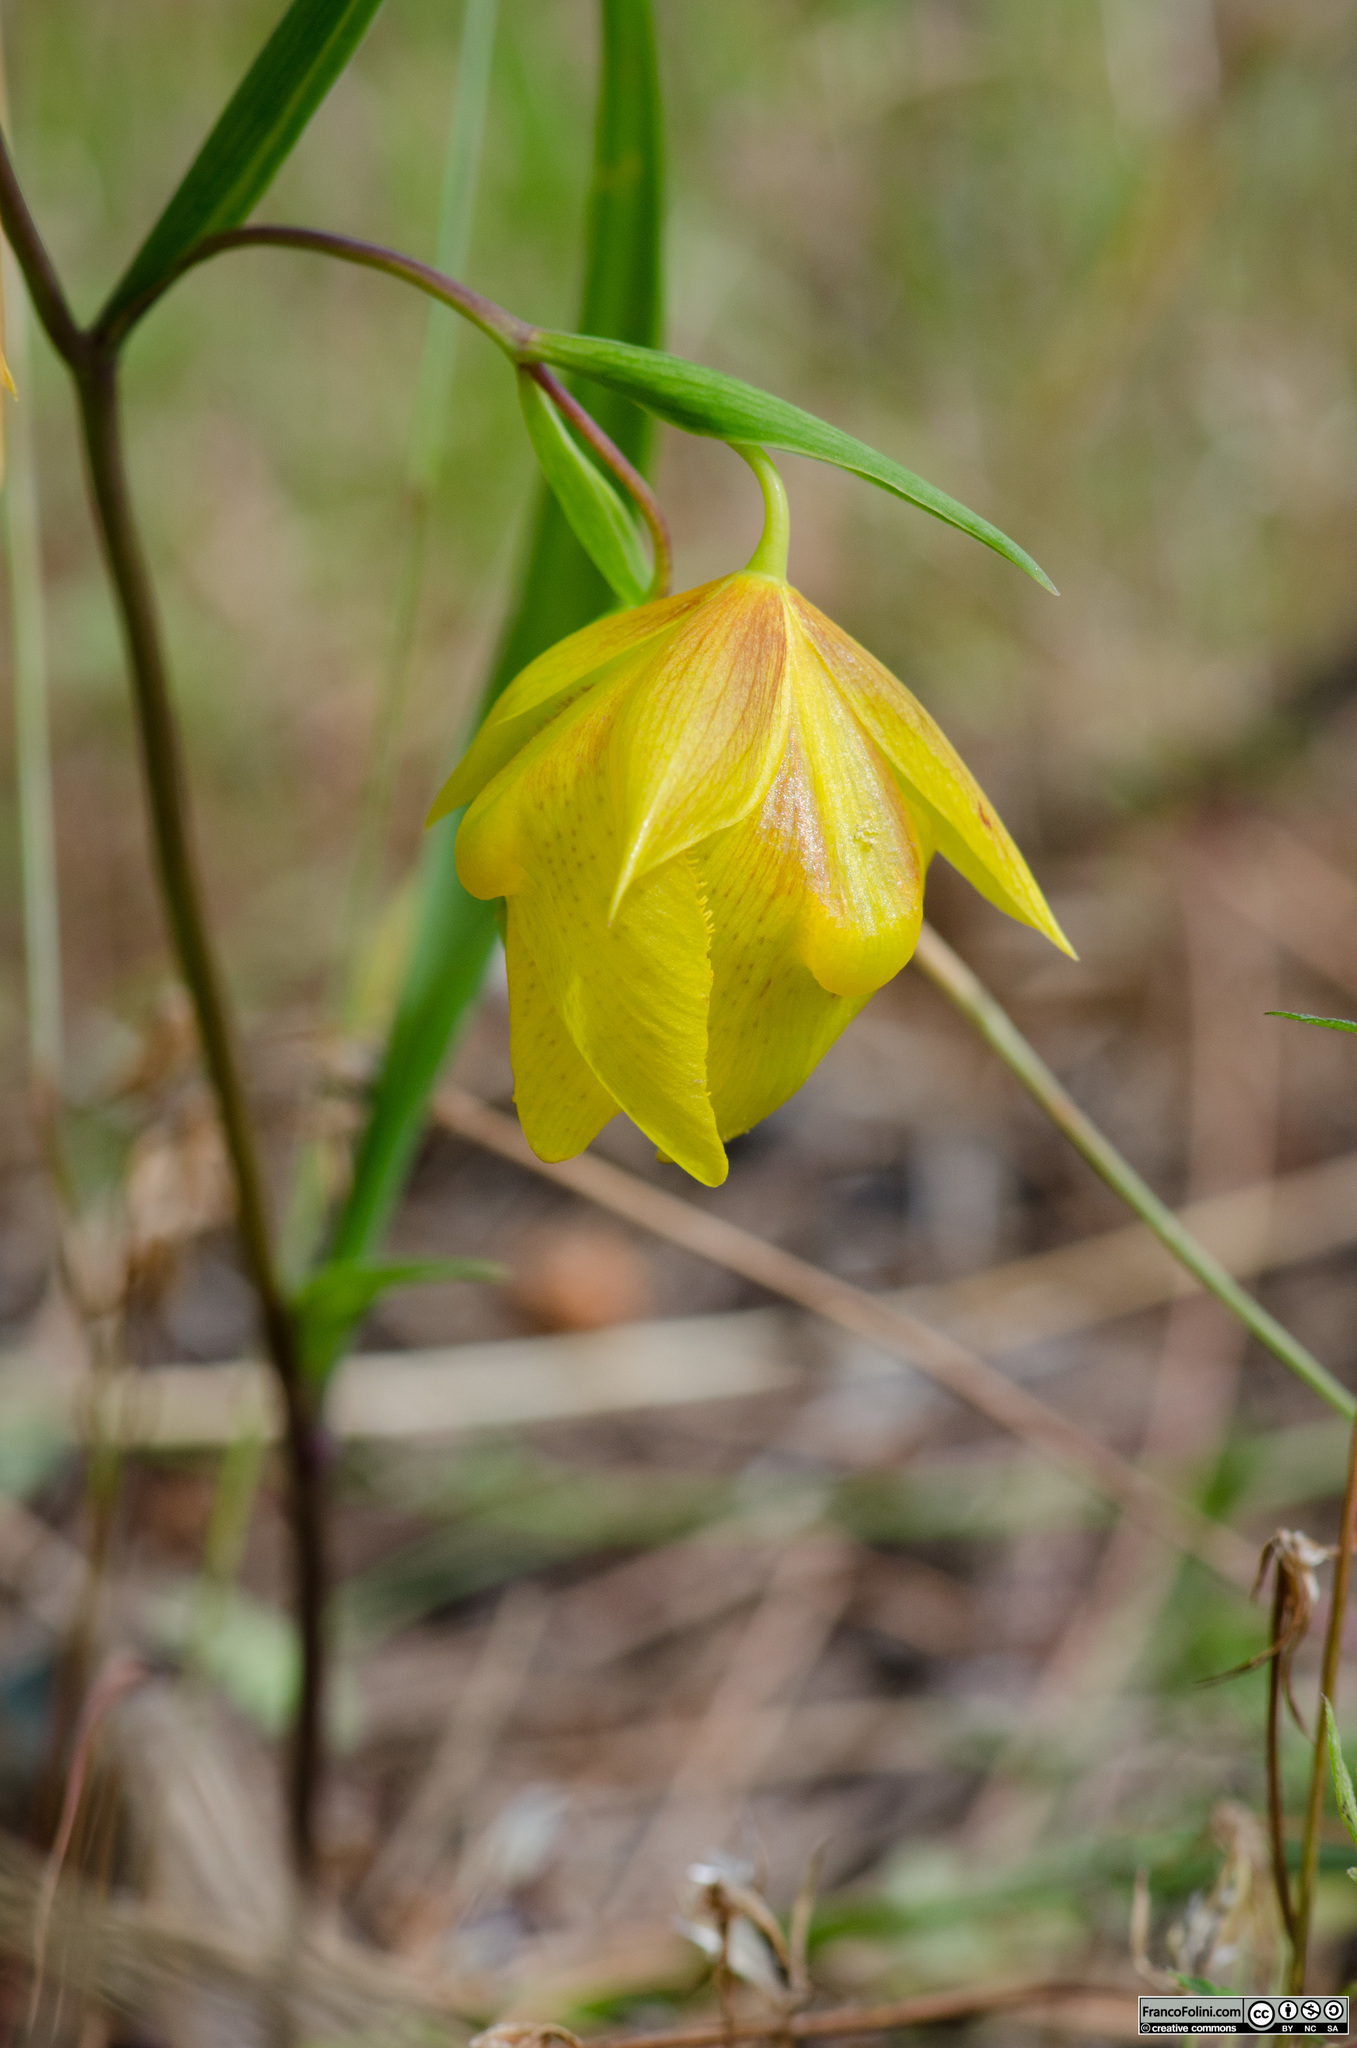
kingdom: Plantae
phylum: Tracheophyta
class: Liliopsida
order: Liliales
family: Liliaceae
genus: Calochortus
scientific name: Calochortus pulchellus
